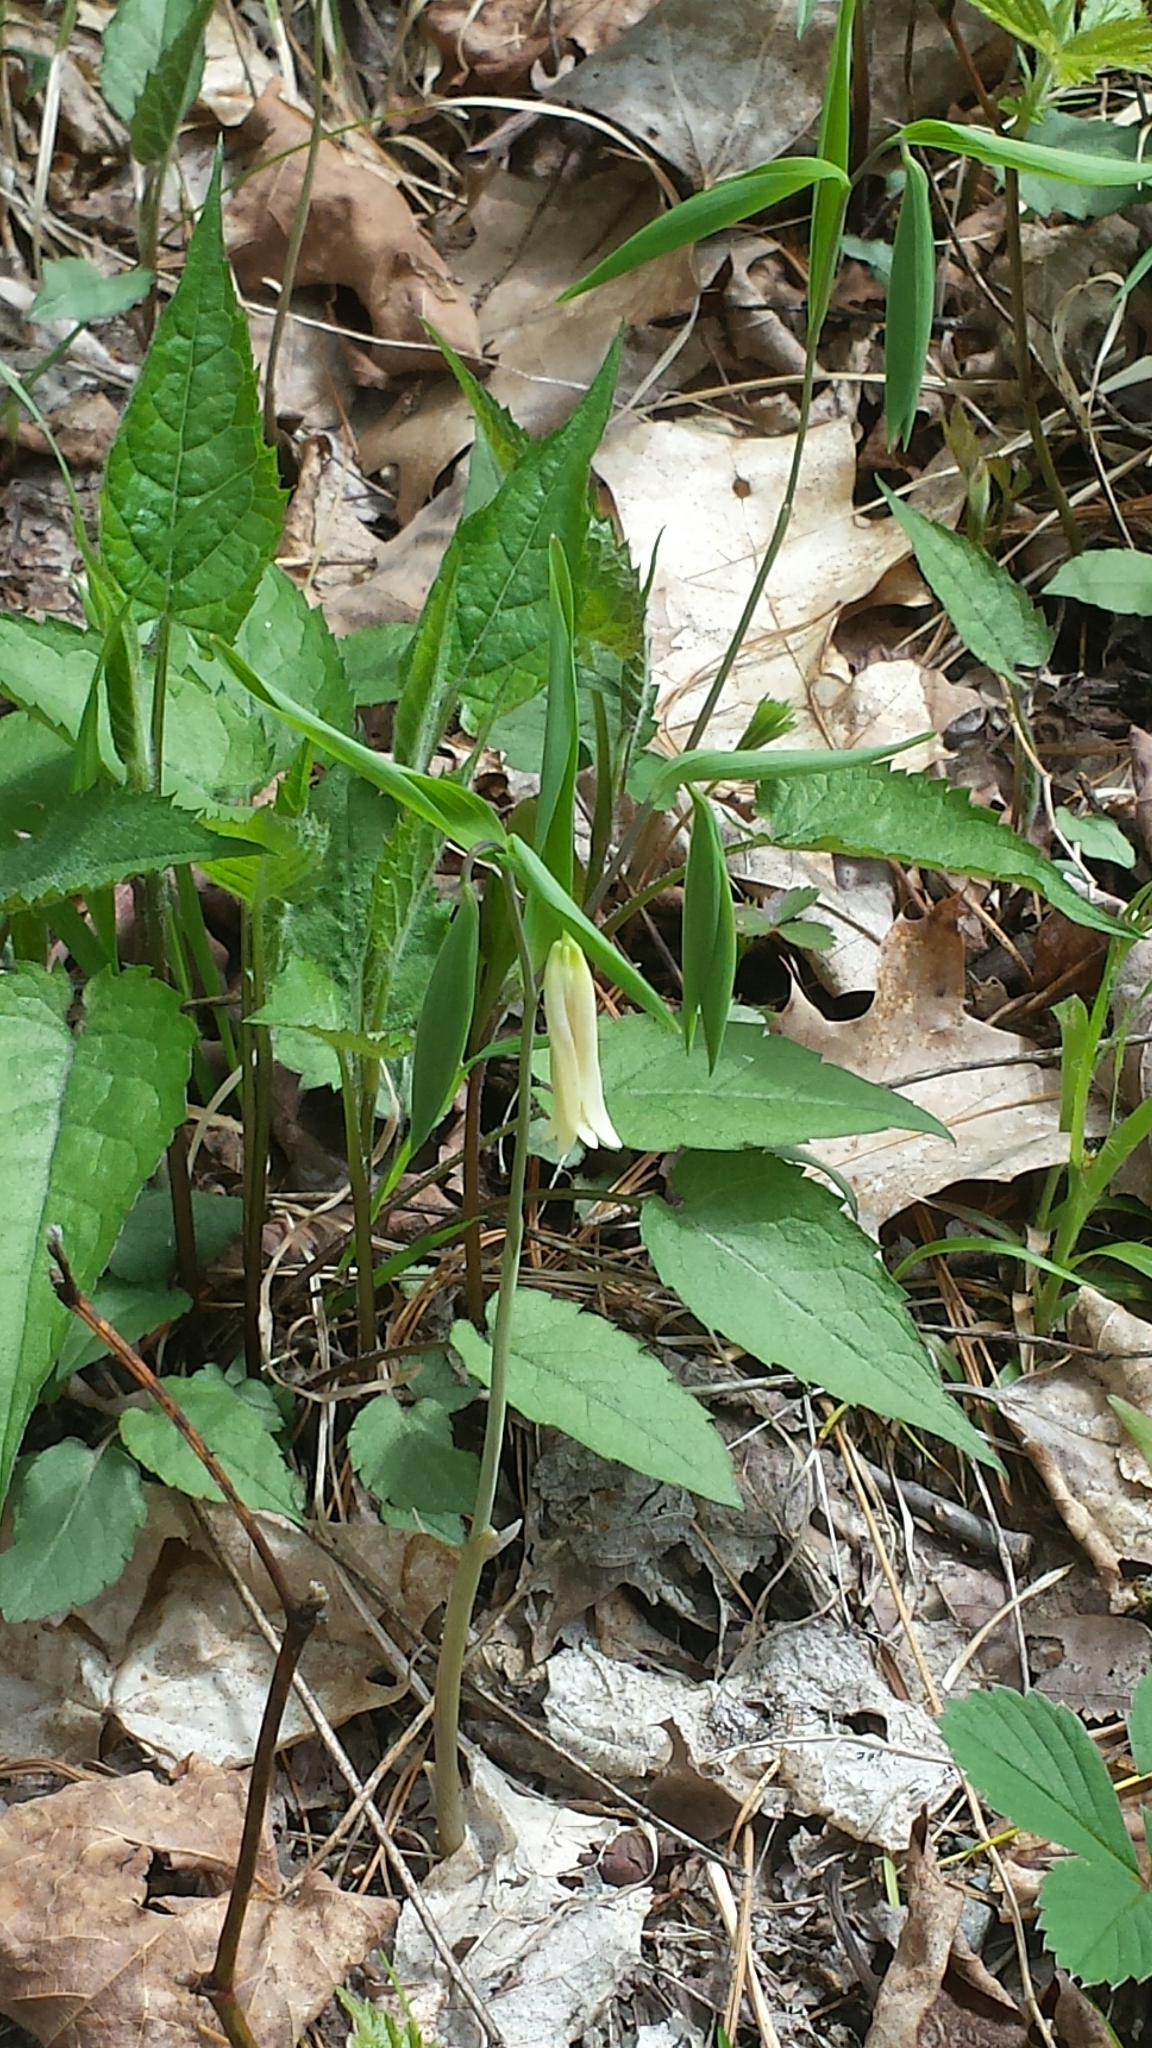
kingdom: Plantae
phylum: Tracheophyta
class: Liliopsida
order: Liliales
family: Colchicaceae
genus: Uvularia
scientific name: Uvularia sessilifolia
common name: Straw-lily
